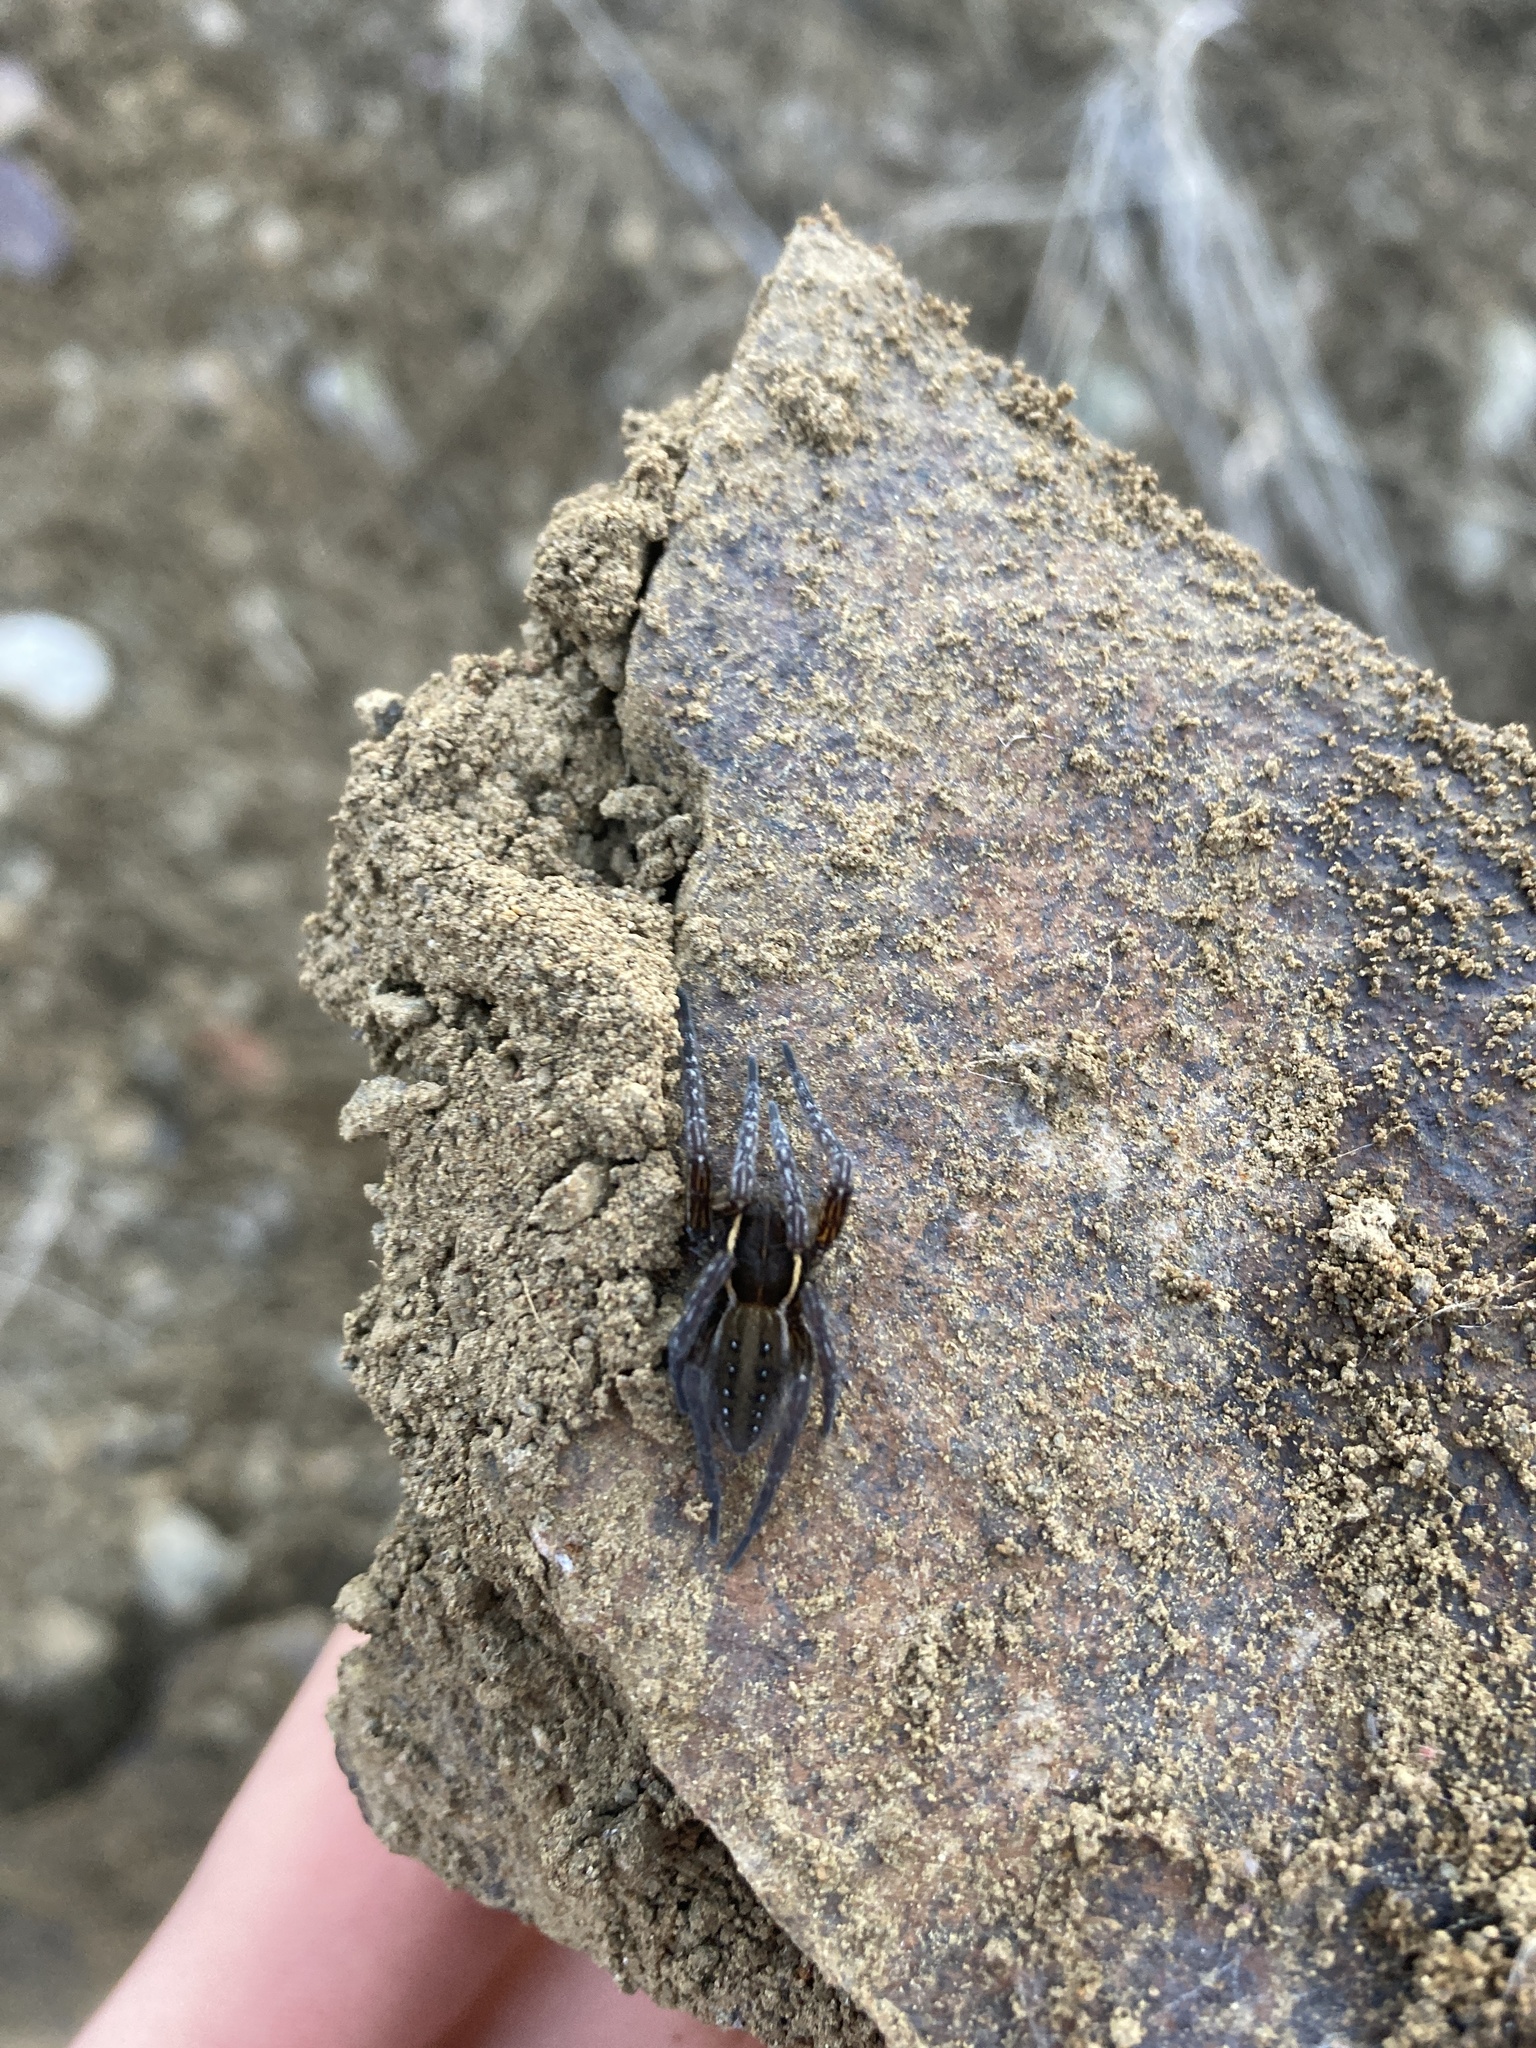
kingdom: Animalia
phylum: Arthropoda
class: Arachnida
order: Araneae
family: Pisauridae
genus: Dolomedes
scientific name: Dolomedes triton
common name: Six-spotted fishing spider
